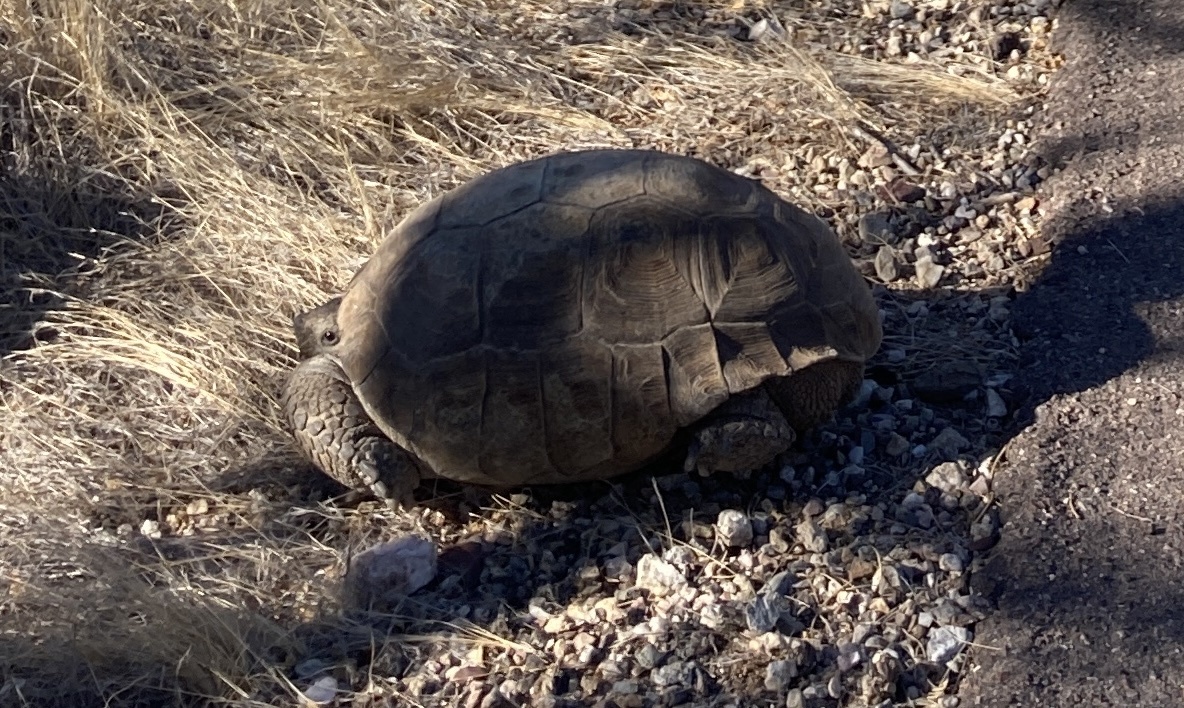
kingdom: Animalia
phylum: Chordata
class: Testudines
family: Testudinidae
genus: Gopherus
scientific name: Gopherus morafkai
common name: Sonoran desert tortoise
